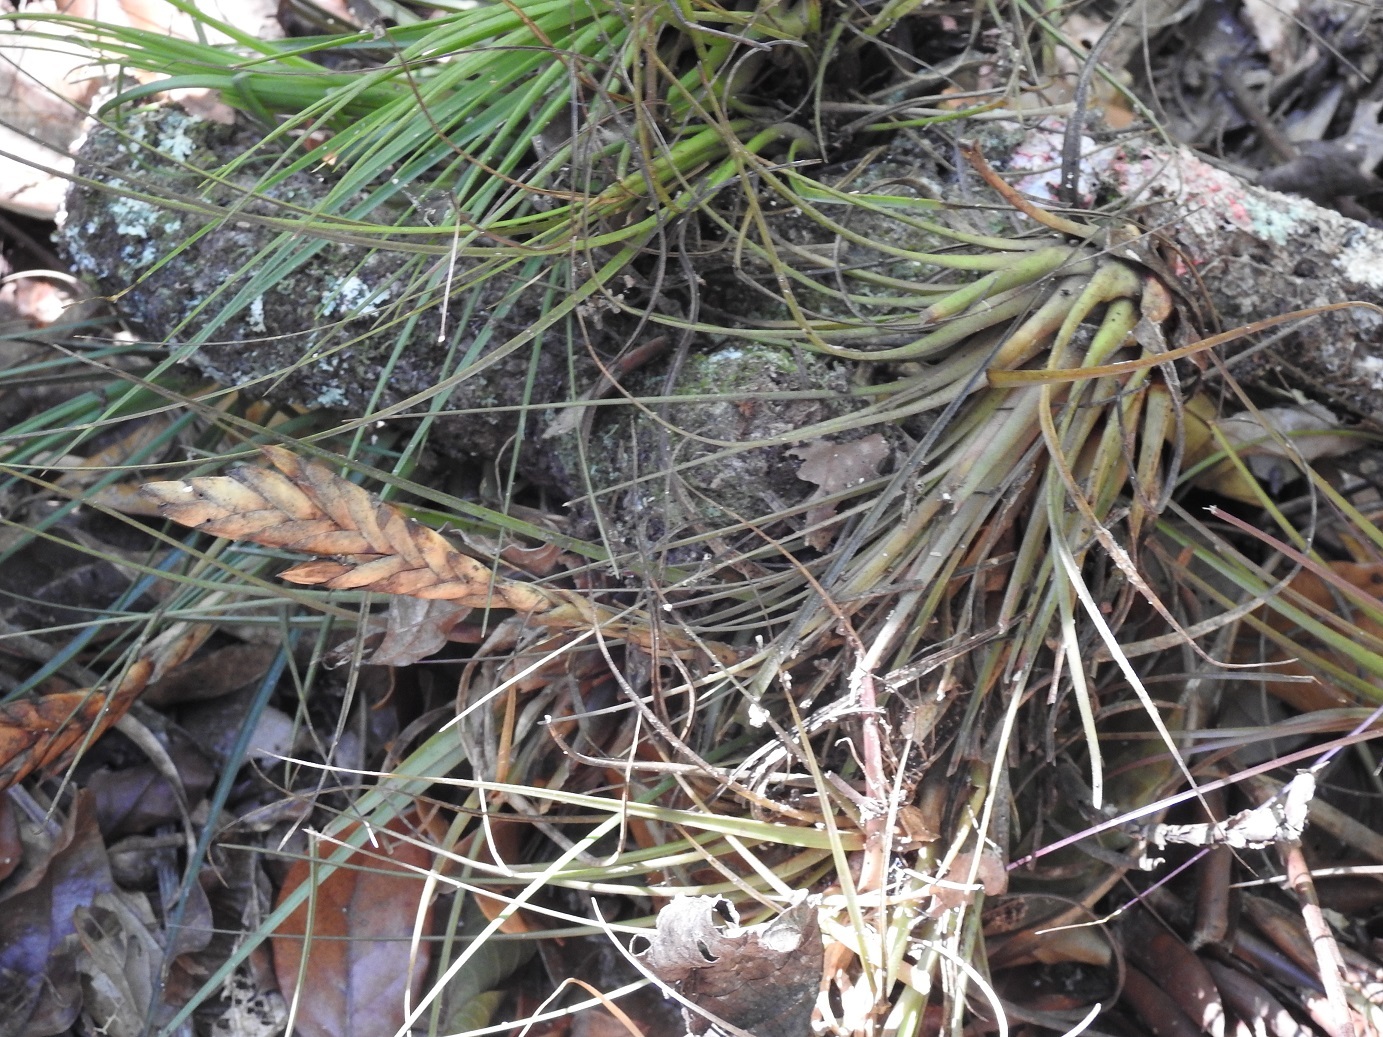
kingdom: Plantae
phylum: Tracheophyta
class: Liliopsida
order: Poales
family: Bromeliaceae
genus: Tillandsia
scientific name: Tillandsia zoquensis
